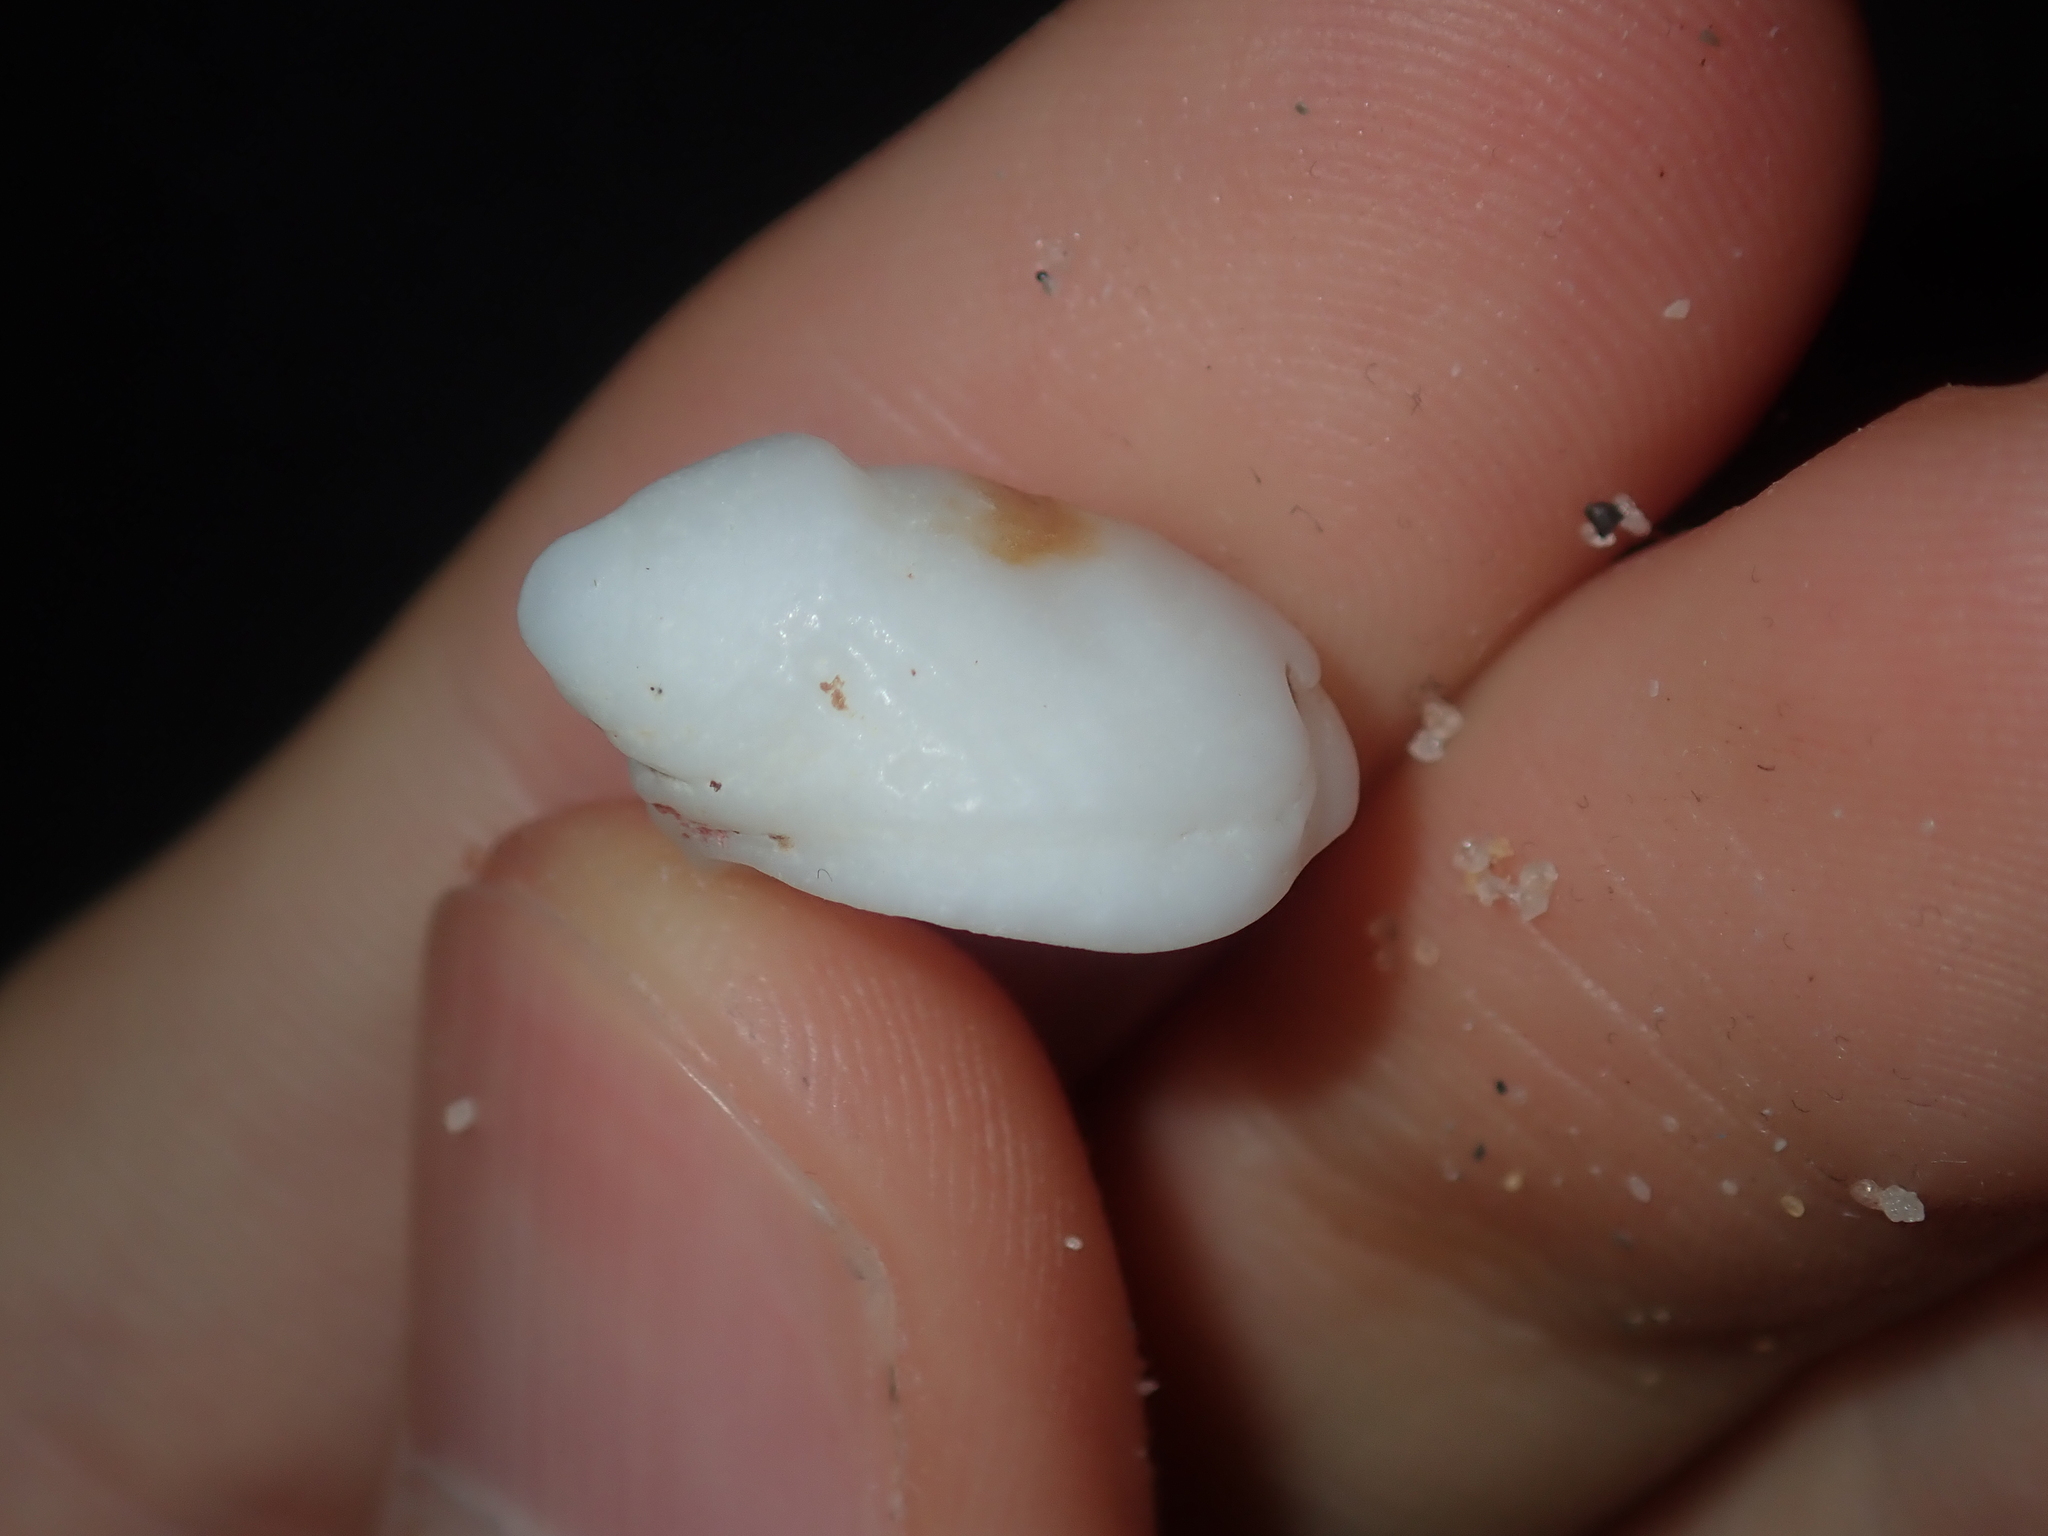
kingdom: Animalia
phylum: Mollusca
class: Gastropoda
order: Littorinimorpha
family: Hipponicidae
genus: Sabia
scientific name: Sabia australis
